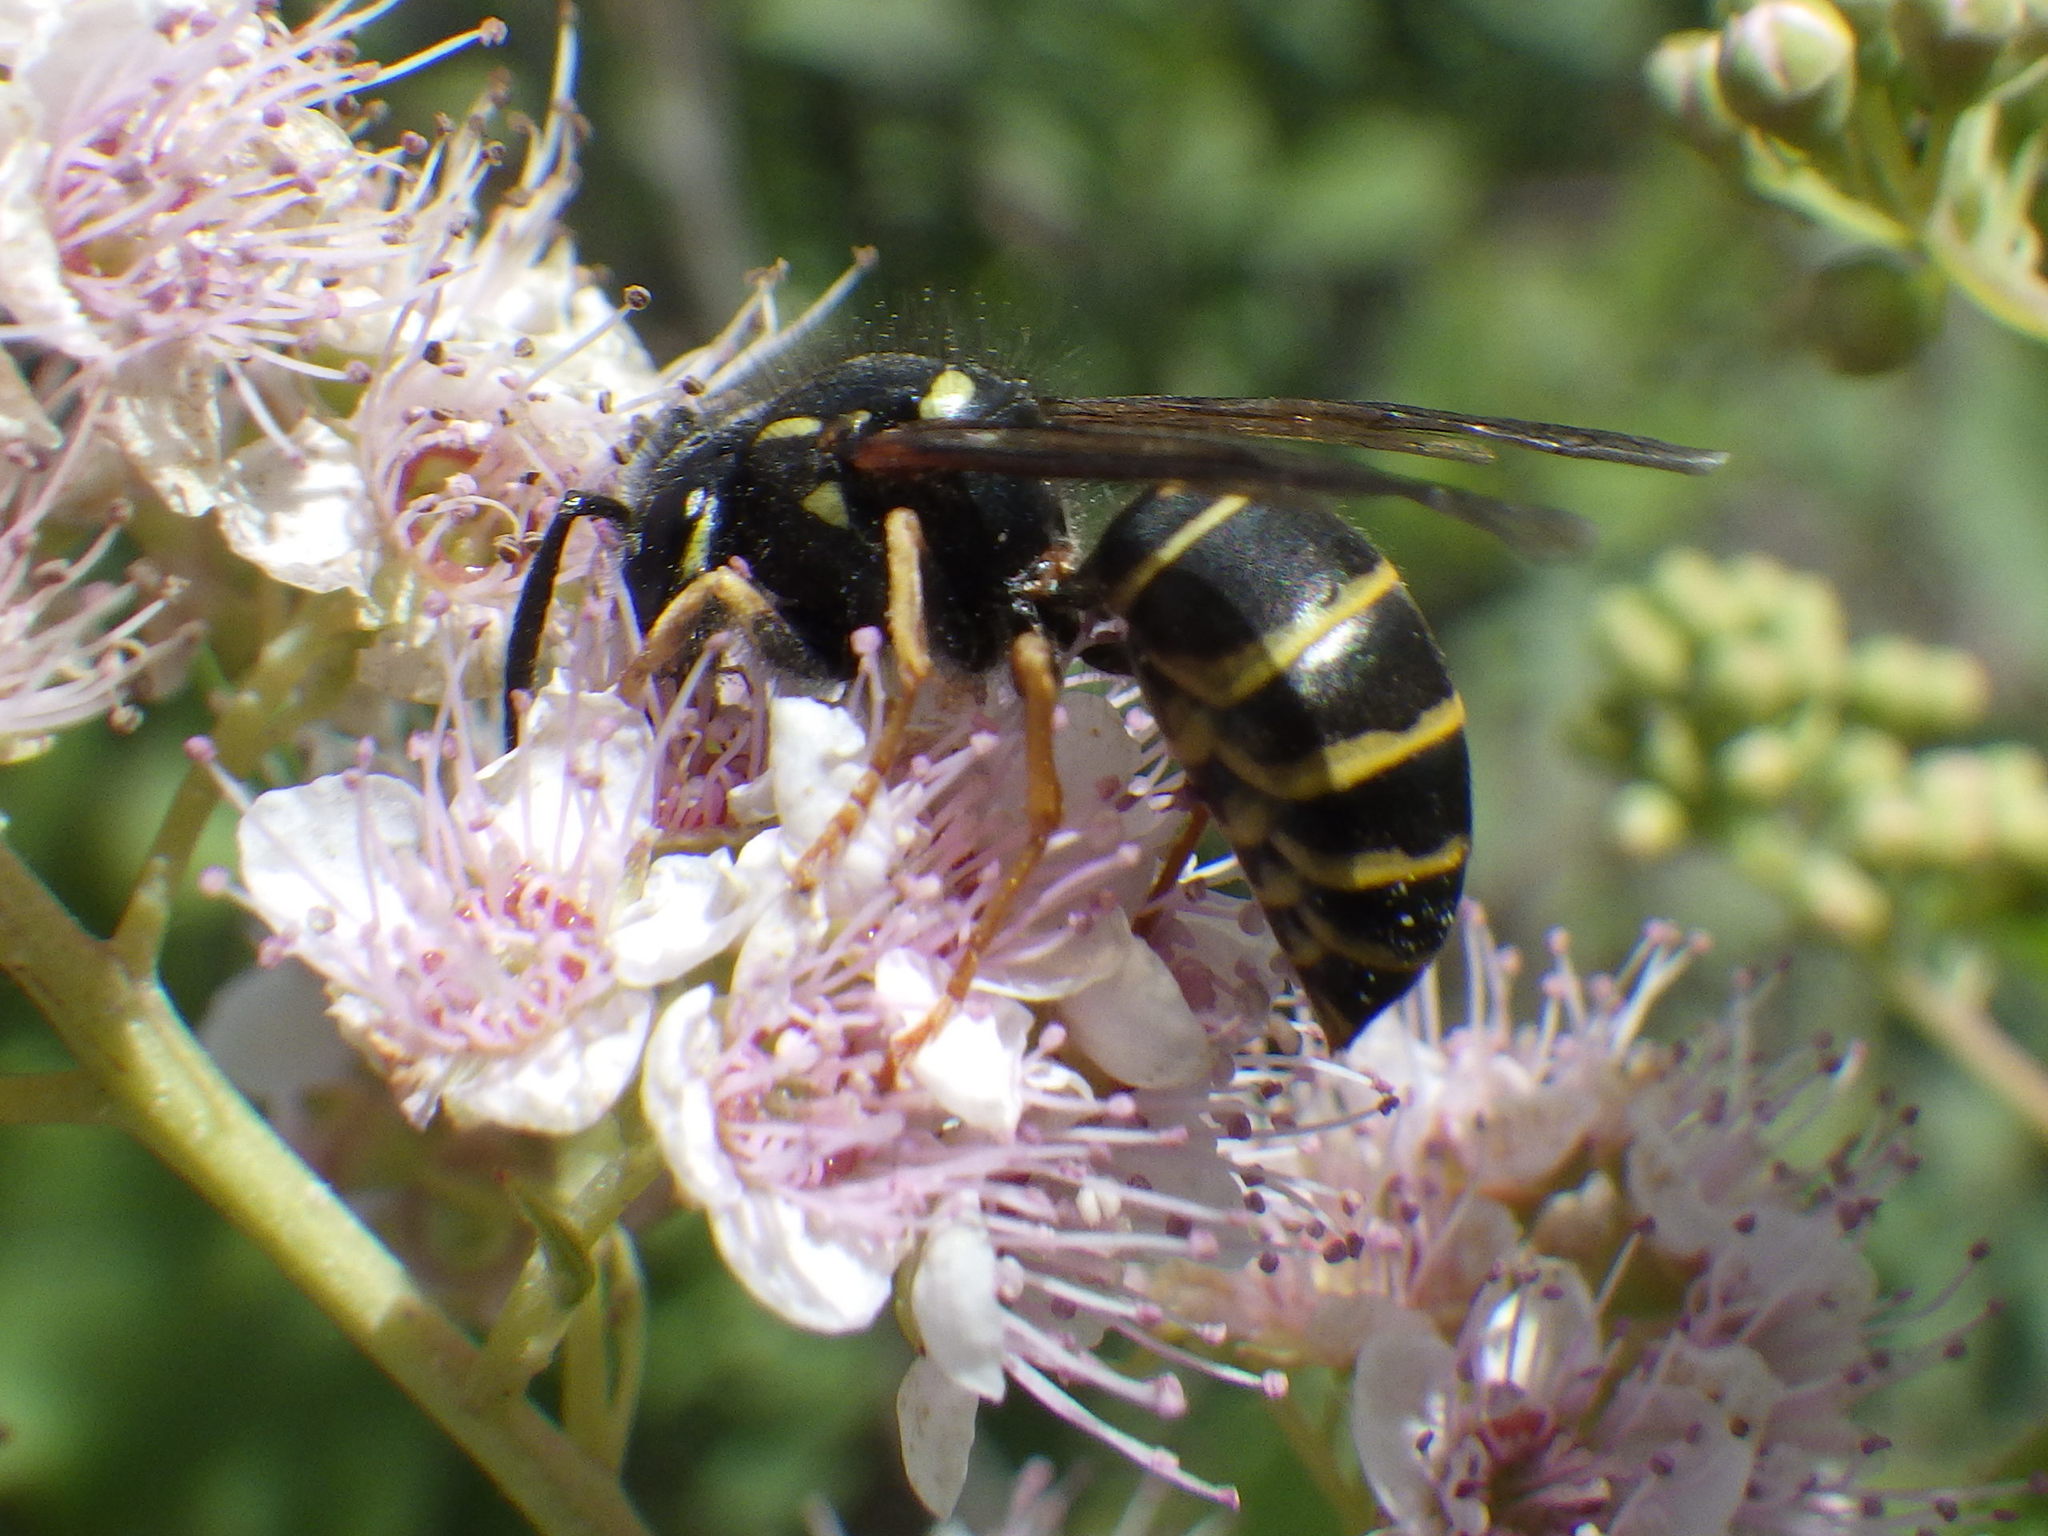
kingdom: Animalia
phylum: Arthropoda
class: Insecta
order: Hymenoptera
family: Vespidae
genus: Vespula
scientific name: Vespula acadica
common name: Forest yellowjacket
